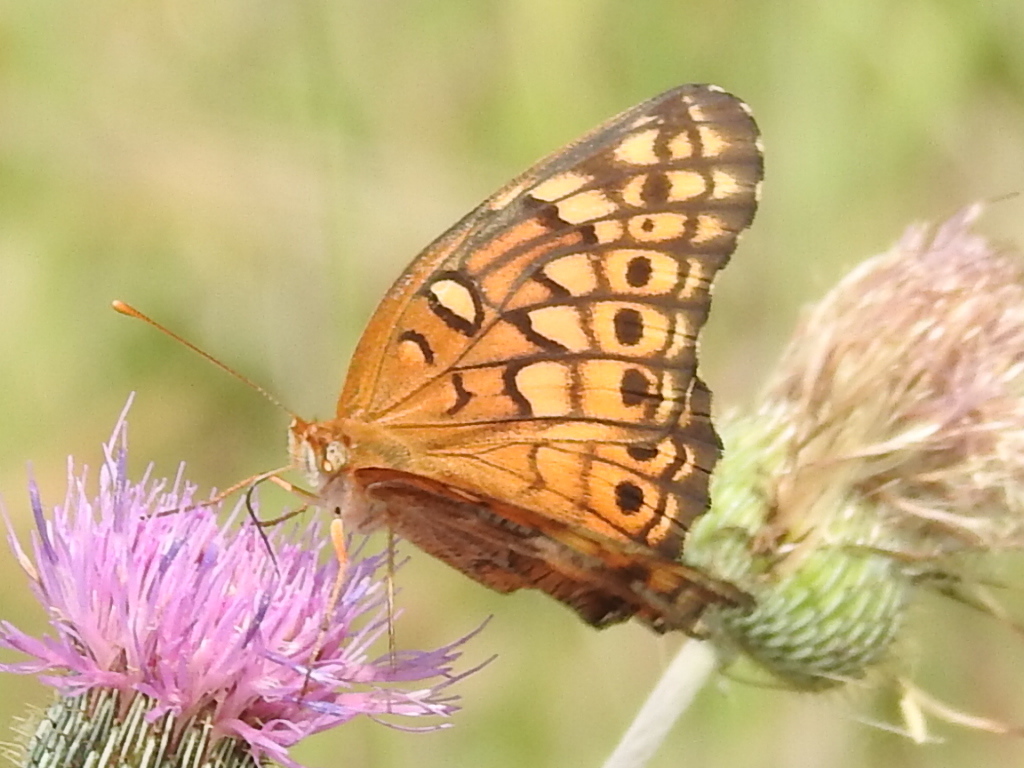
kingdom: Animalia
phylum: Arthropoda
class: Insecta
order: Lepidoptera
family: Nymphalidae
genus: Euptoieta
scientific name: Euptoieta claudia
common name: Variegated fritillary
